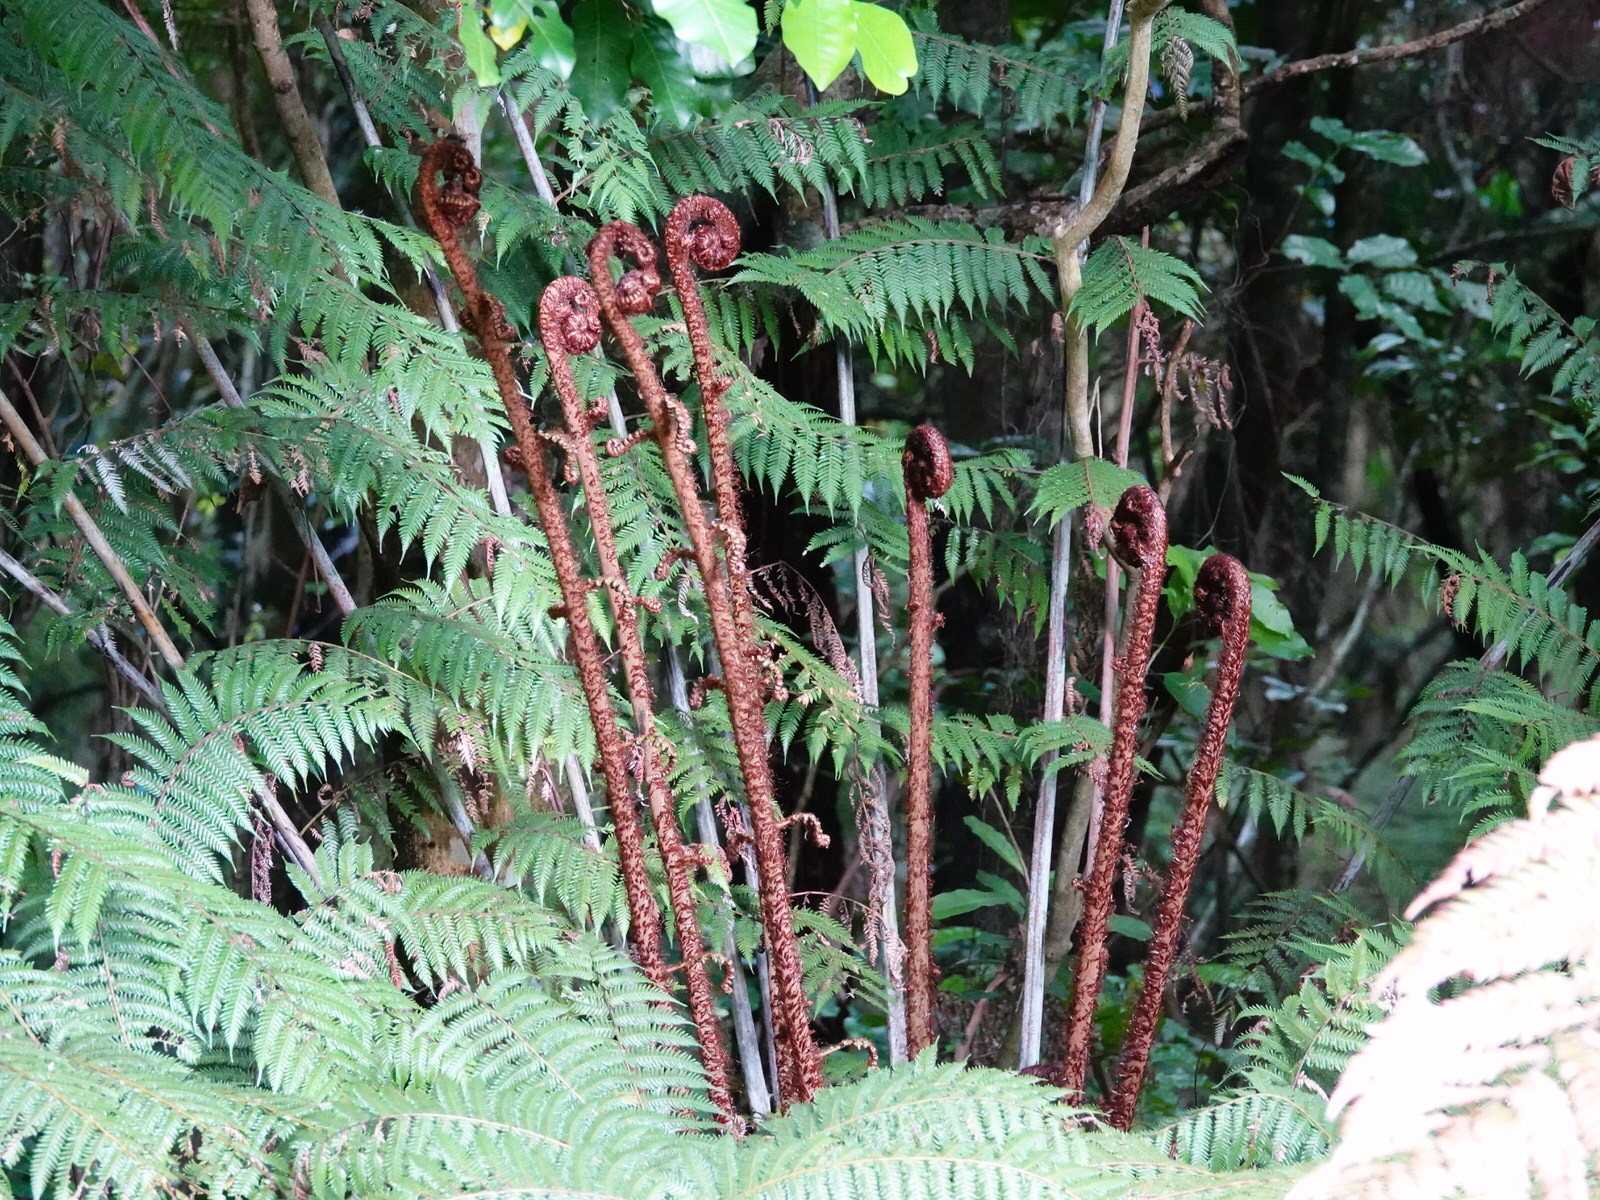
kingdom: Plantae
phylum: Tracheophyta
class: Polypodiopsida
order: Cyatheales
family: Cyatheaceae
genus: Alsophila
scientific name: Alsophila dealbata
